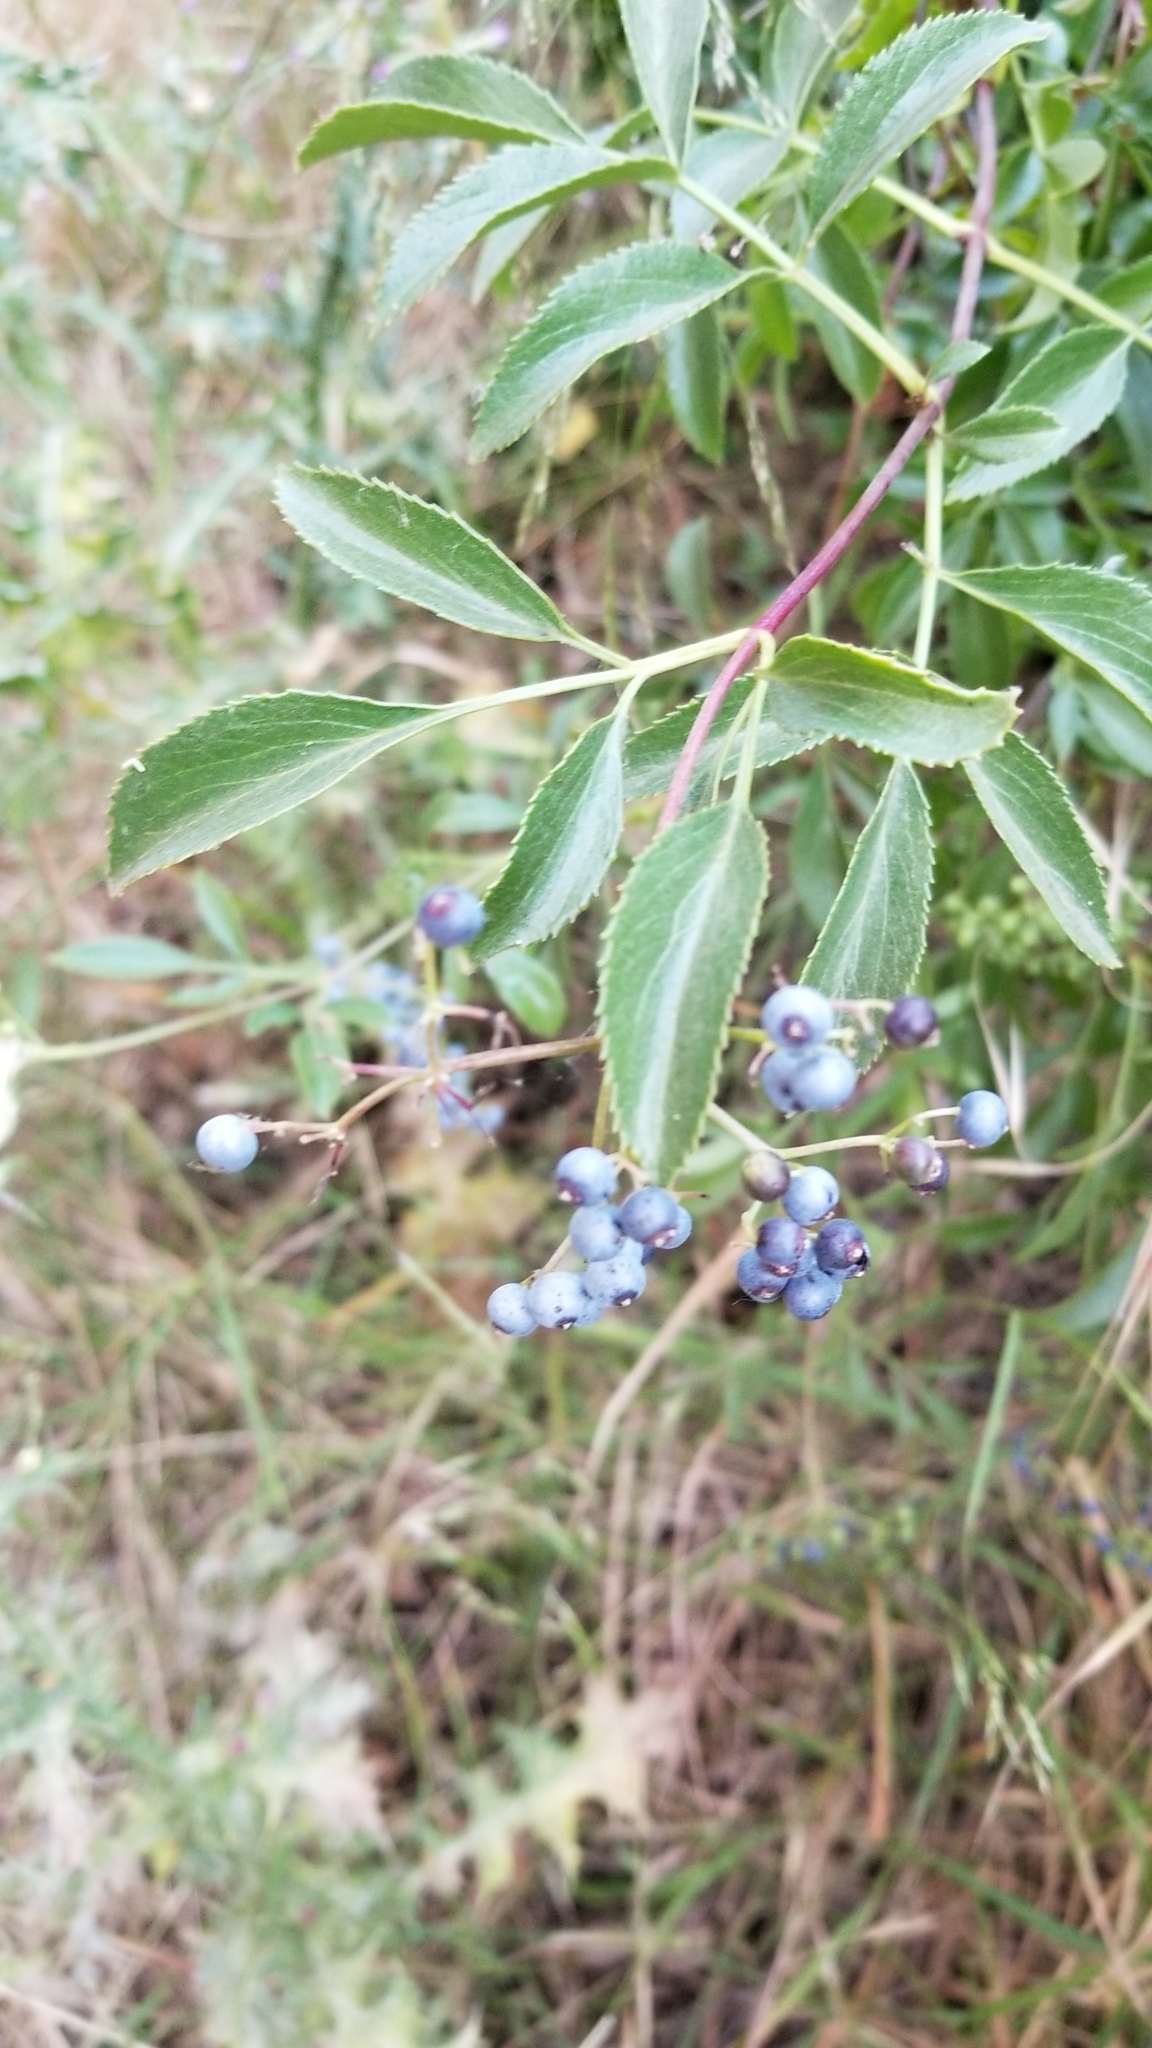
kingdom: Plantae
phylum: Tracheophyta
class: Magnoliopsida
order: Dipsacales
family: Viburnaceae
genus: Sambucus
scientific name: Sambucus cerulea
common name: Blue elder
